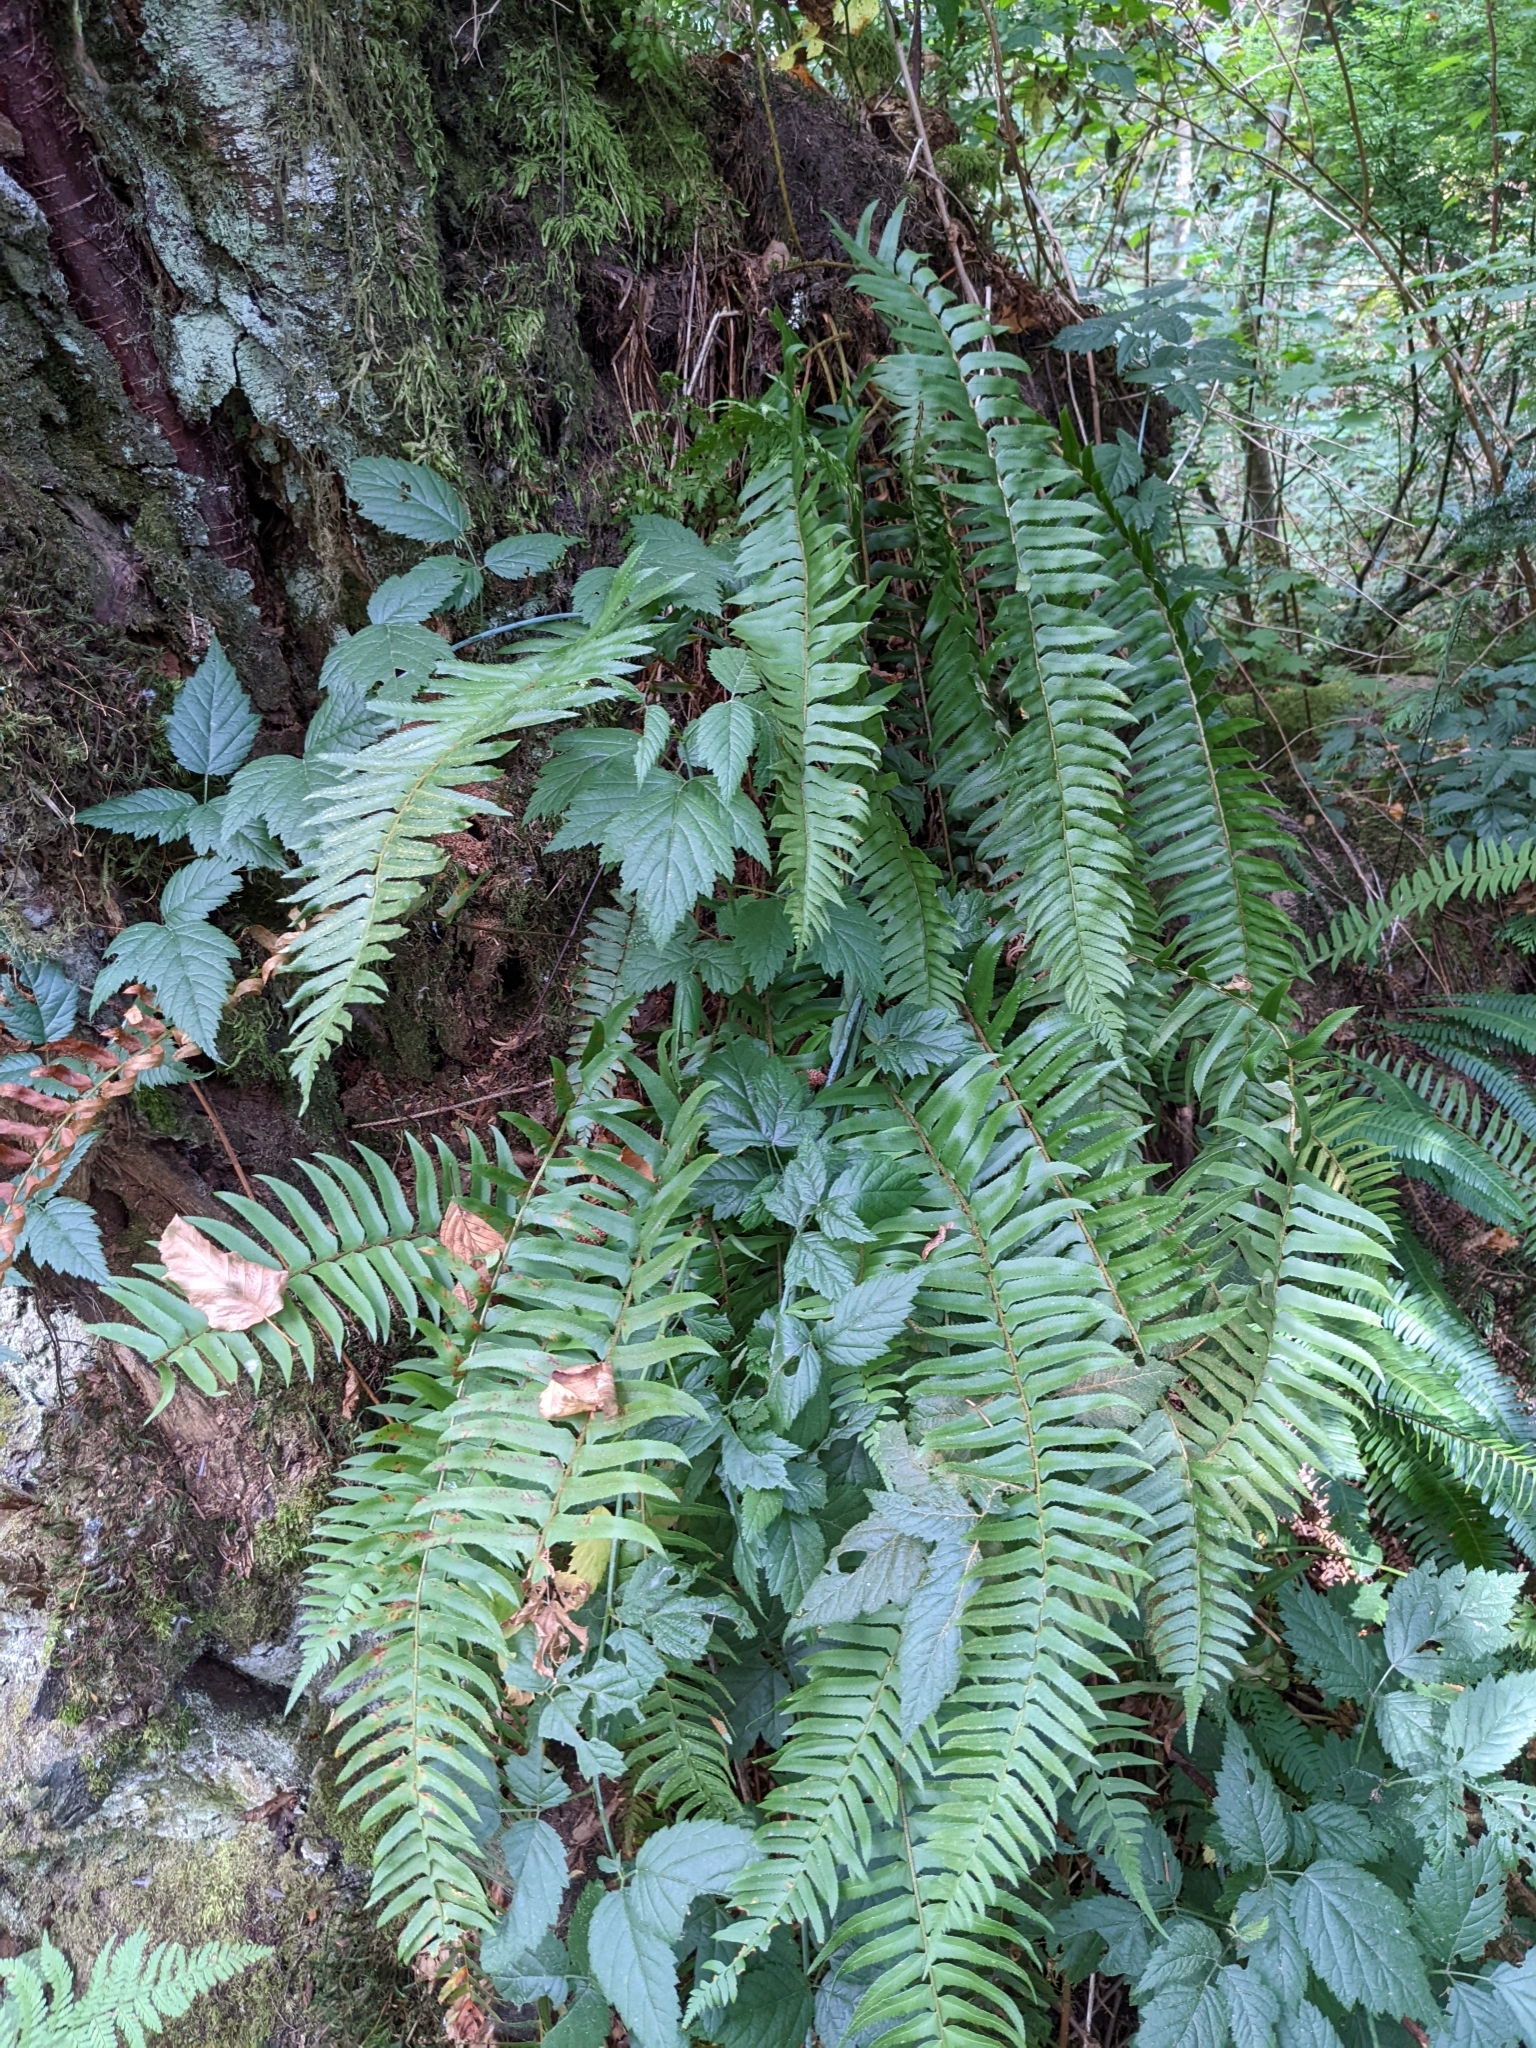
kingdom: Plantae
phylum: Tracheophyta
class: Polypodiopsida
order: Polypodiales
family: Dryopteridaceae
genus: Polystichum
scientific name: Polystichum munitum
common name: Western sword-fern
